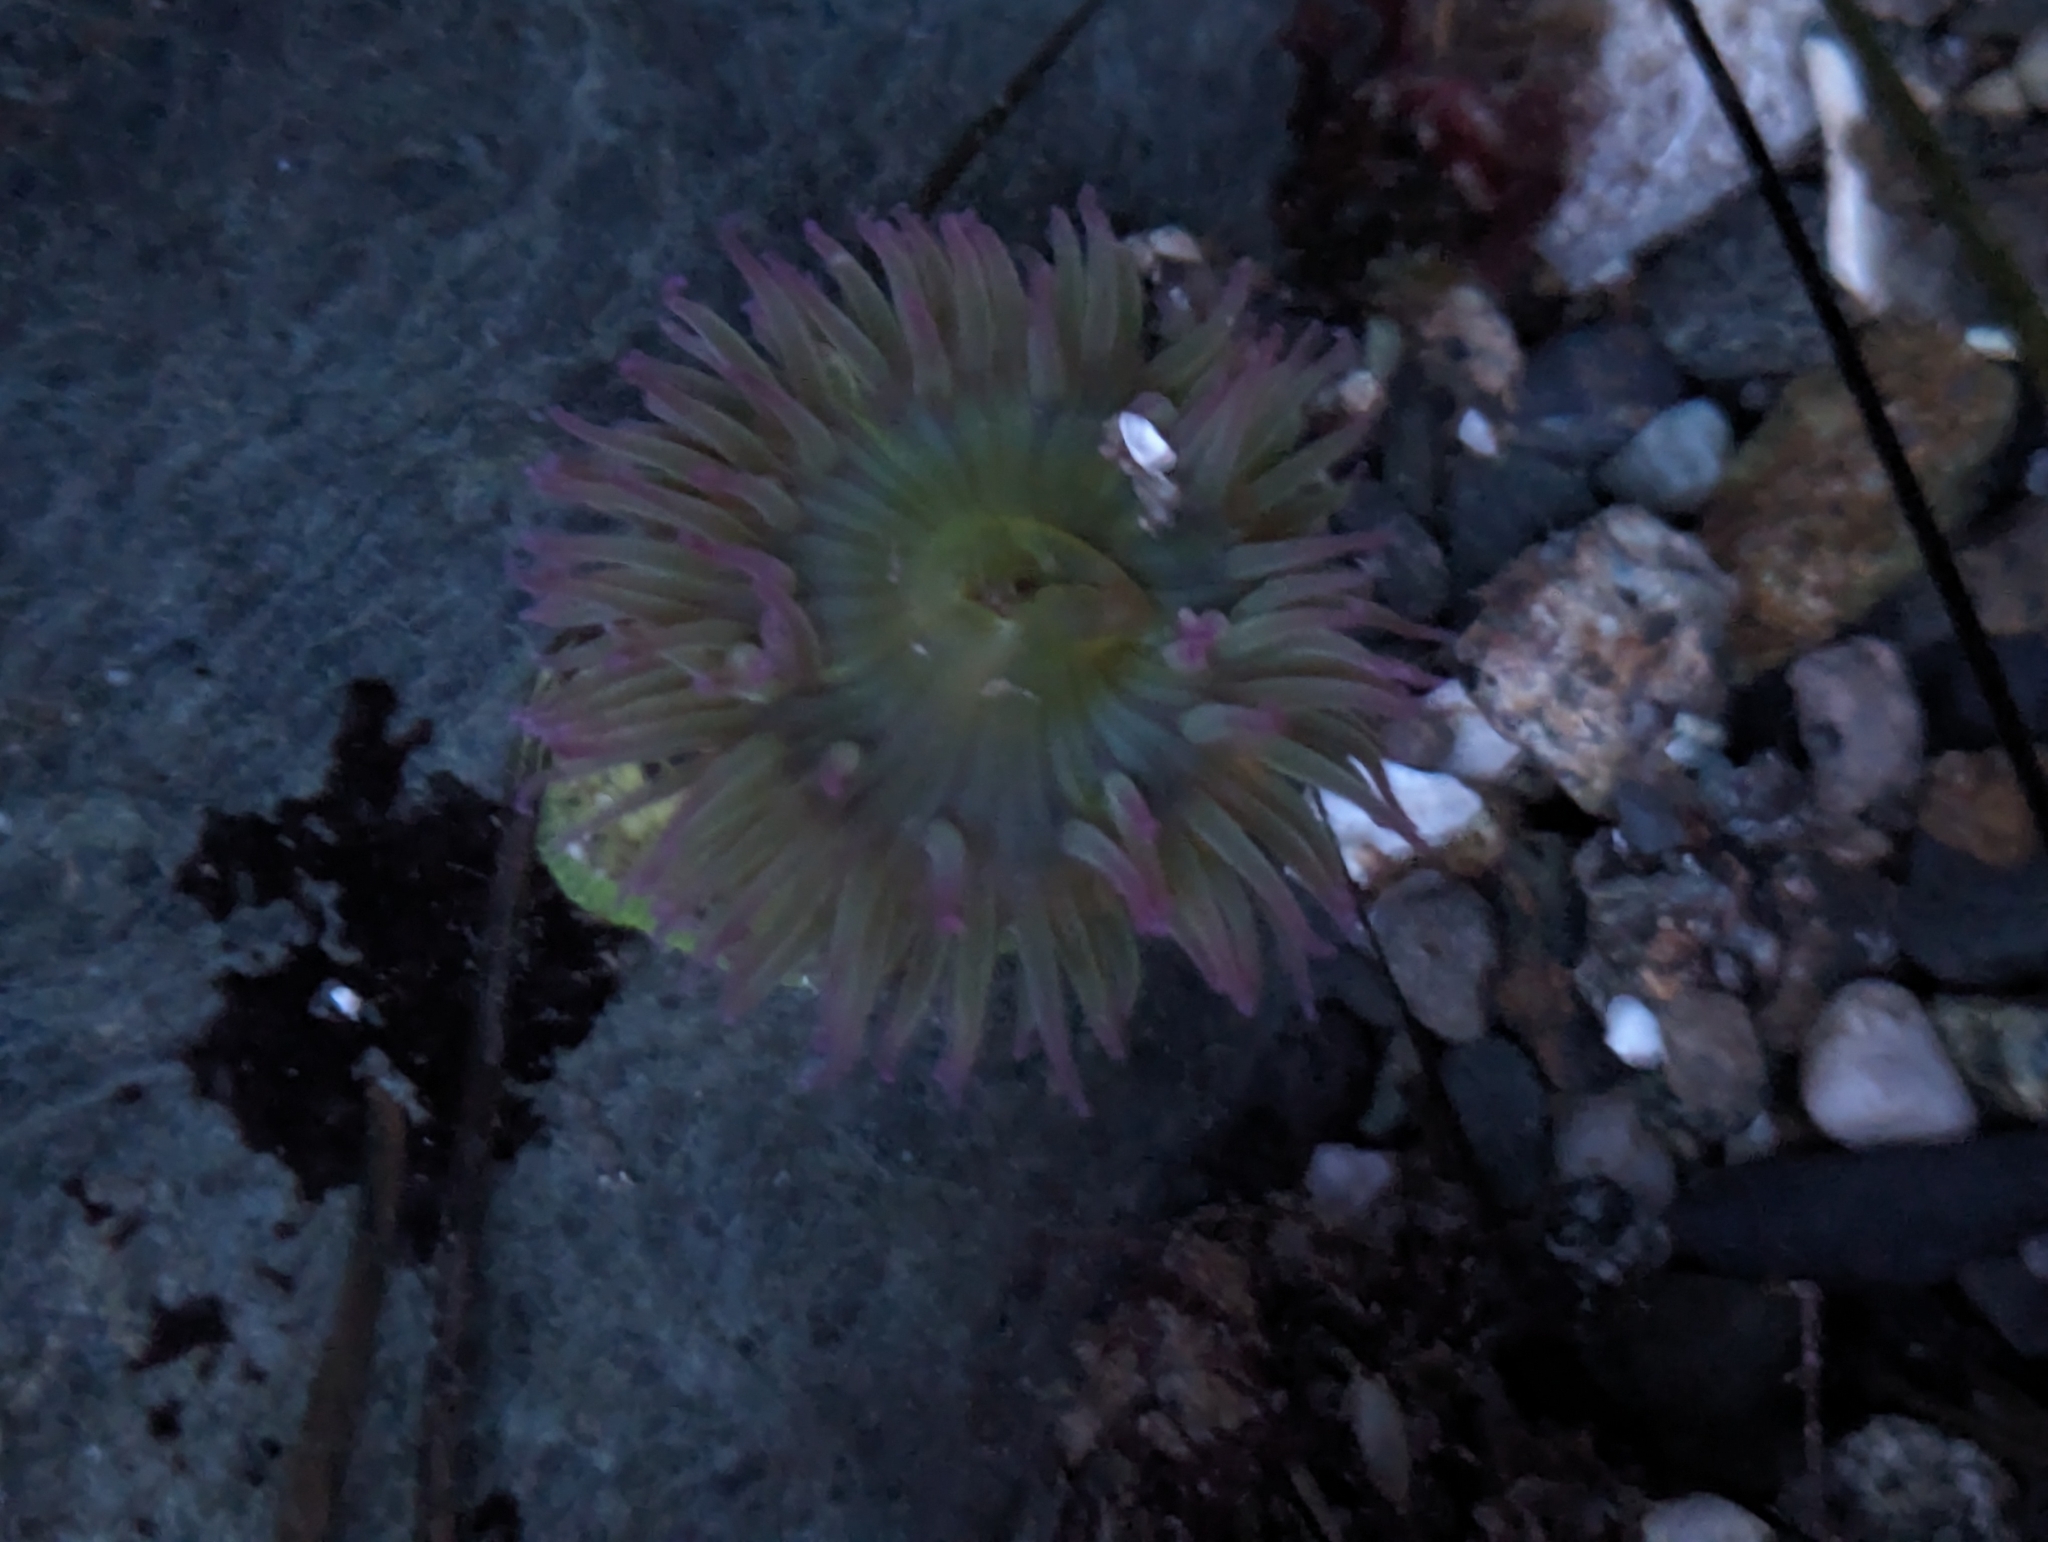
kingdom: Animalia
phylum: Cnidaria
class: Anthozoa
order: Actiniaria
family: Actiniidae
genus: Anthopleura
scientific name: Anthopleura elegantissima
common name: Clonal anemone
